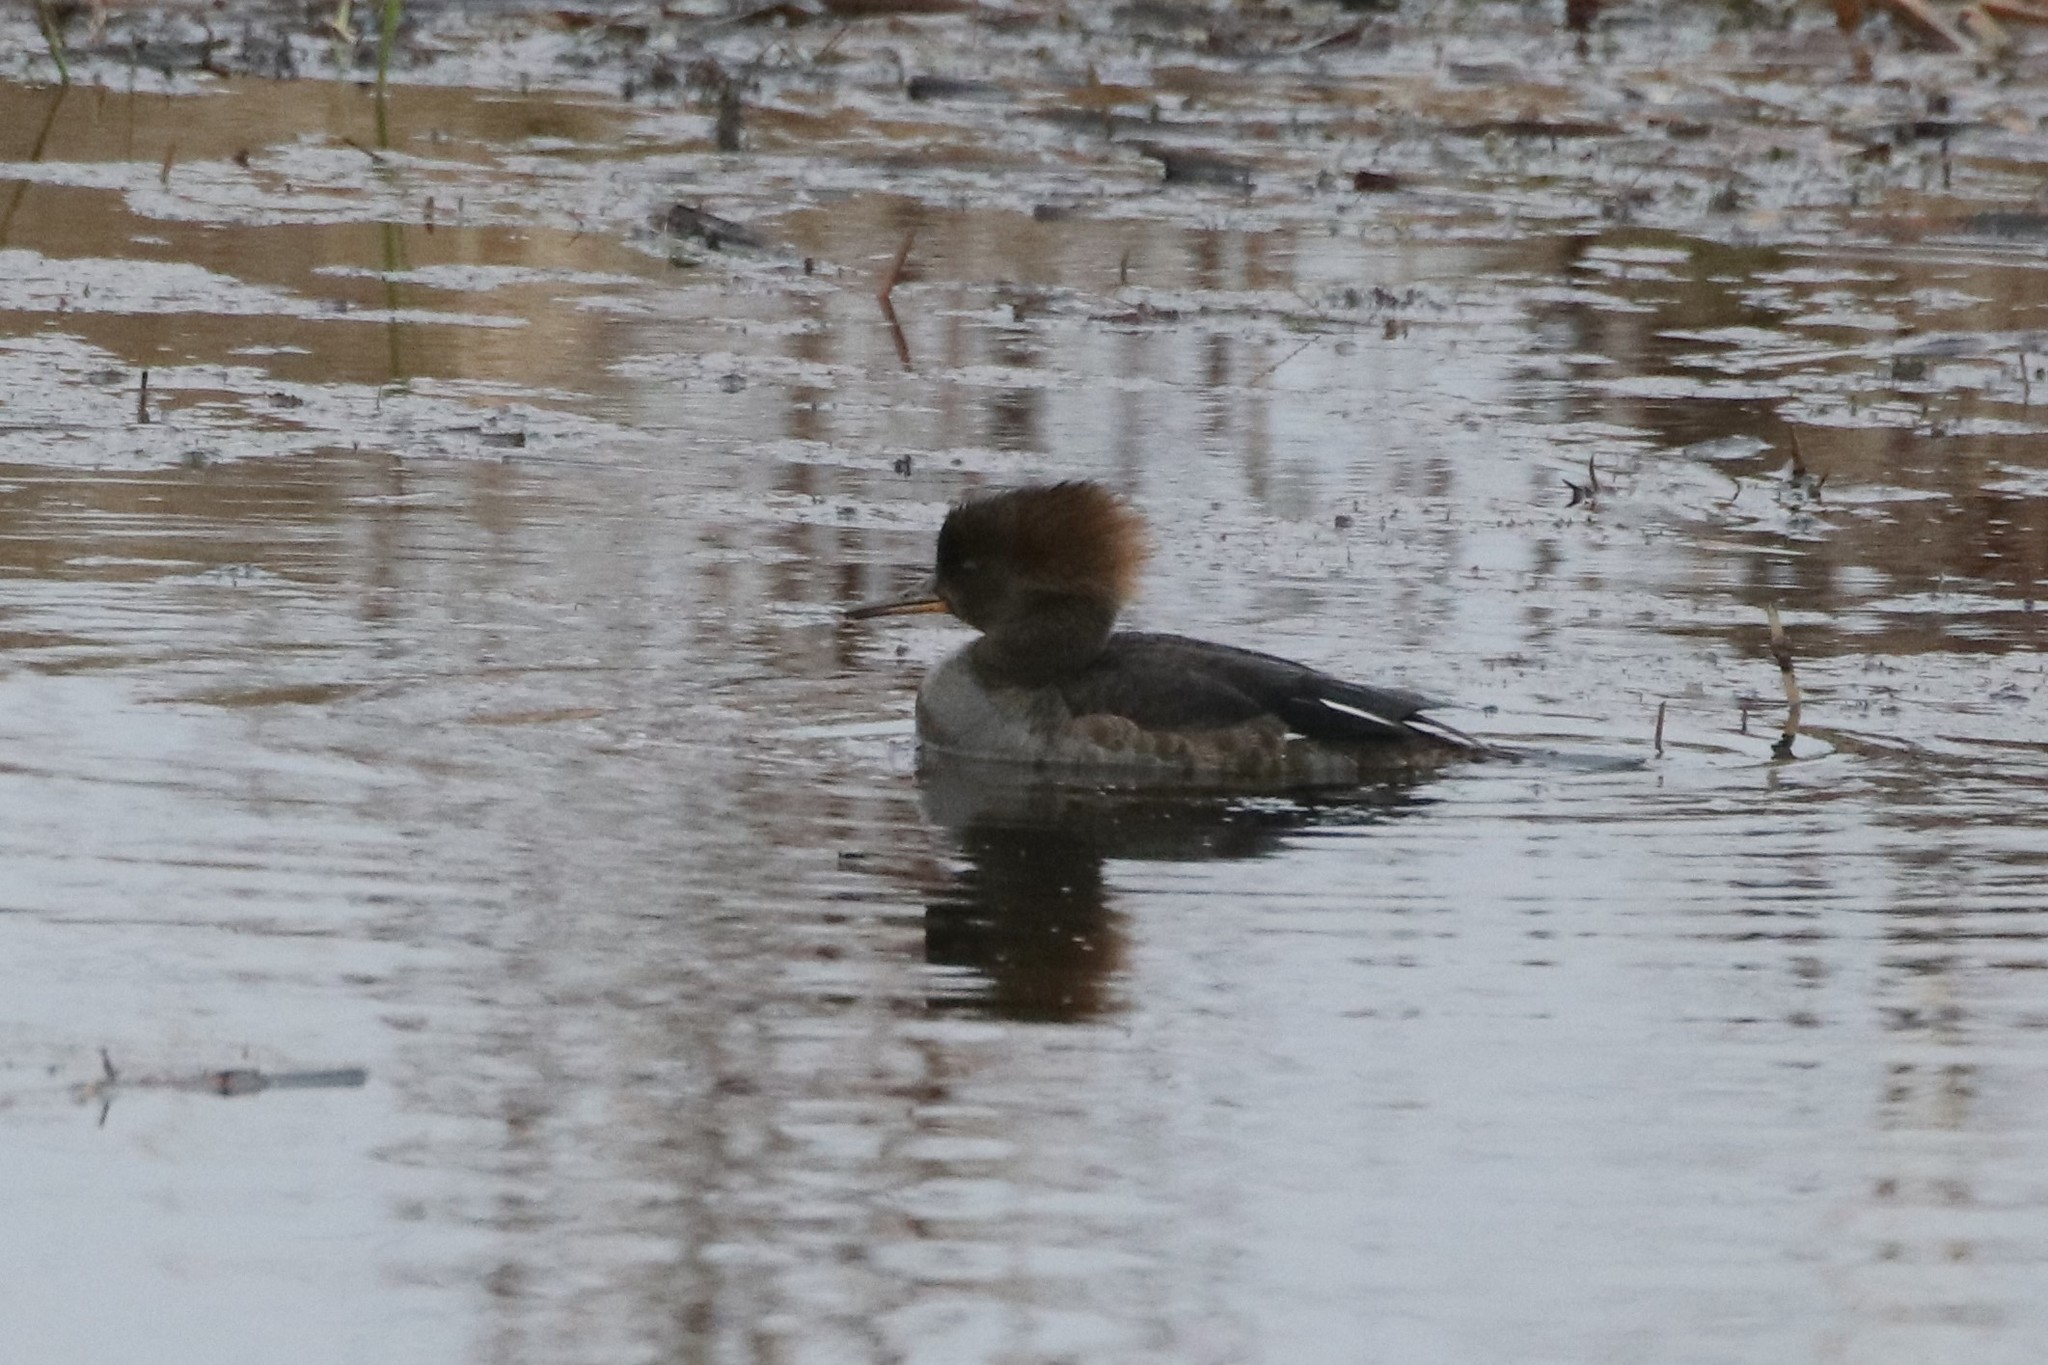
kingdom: Animalia
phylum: Chordata
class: Aves
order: Anseriformes
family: Anatidae
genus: Lophodytes
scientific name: Lophodytes cucullatus
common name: Hooded merganser
